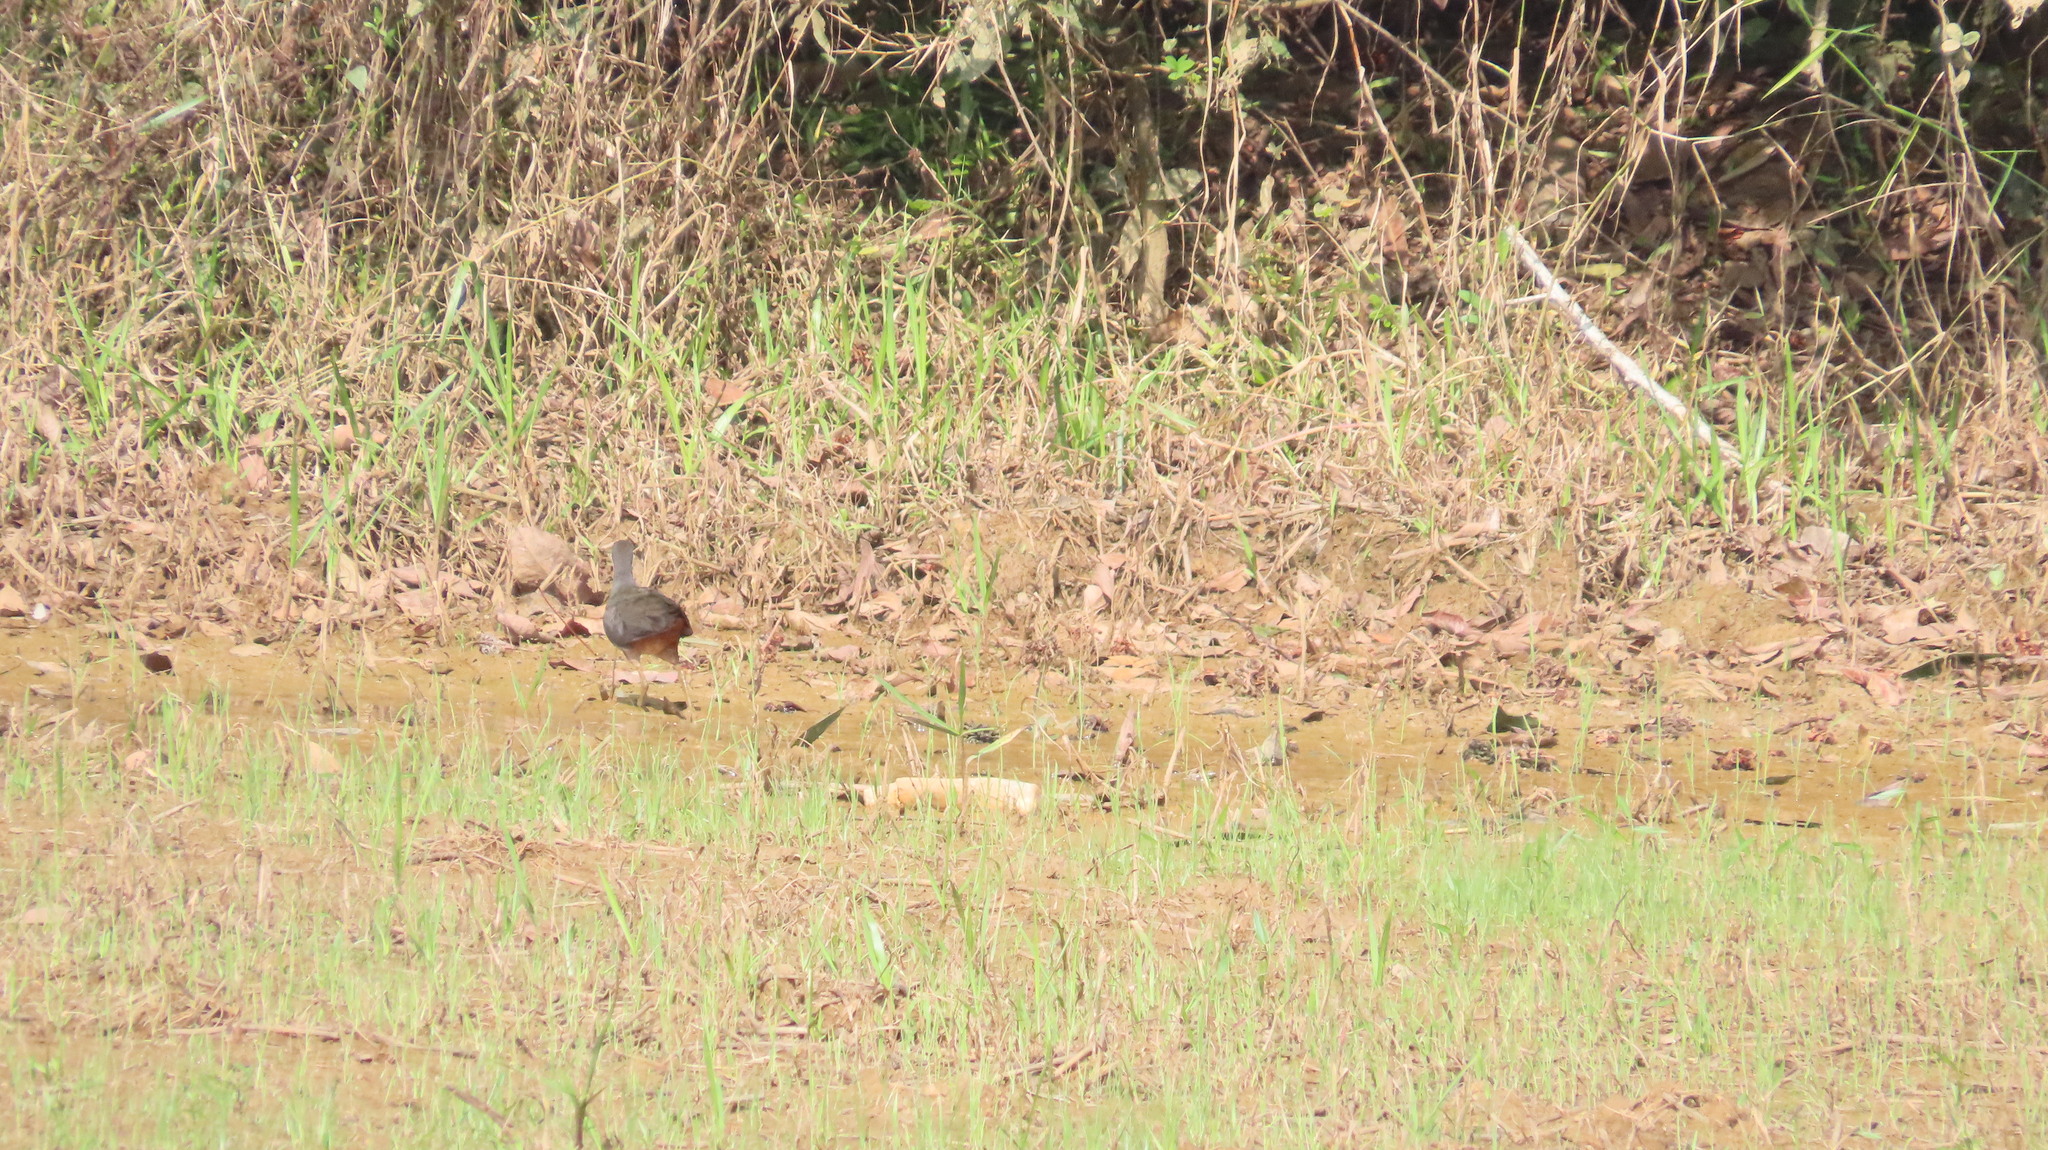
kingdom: Animalia
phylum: Chordata
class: Aves
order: Gruiformes
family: Rallidae
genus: Amaurornis
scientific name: Amaurornis phoenicurus
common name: White-breasted waterhen
